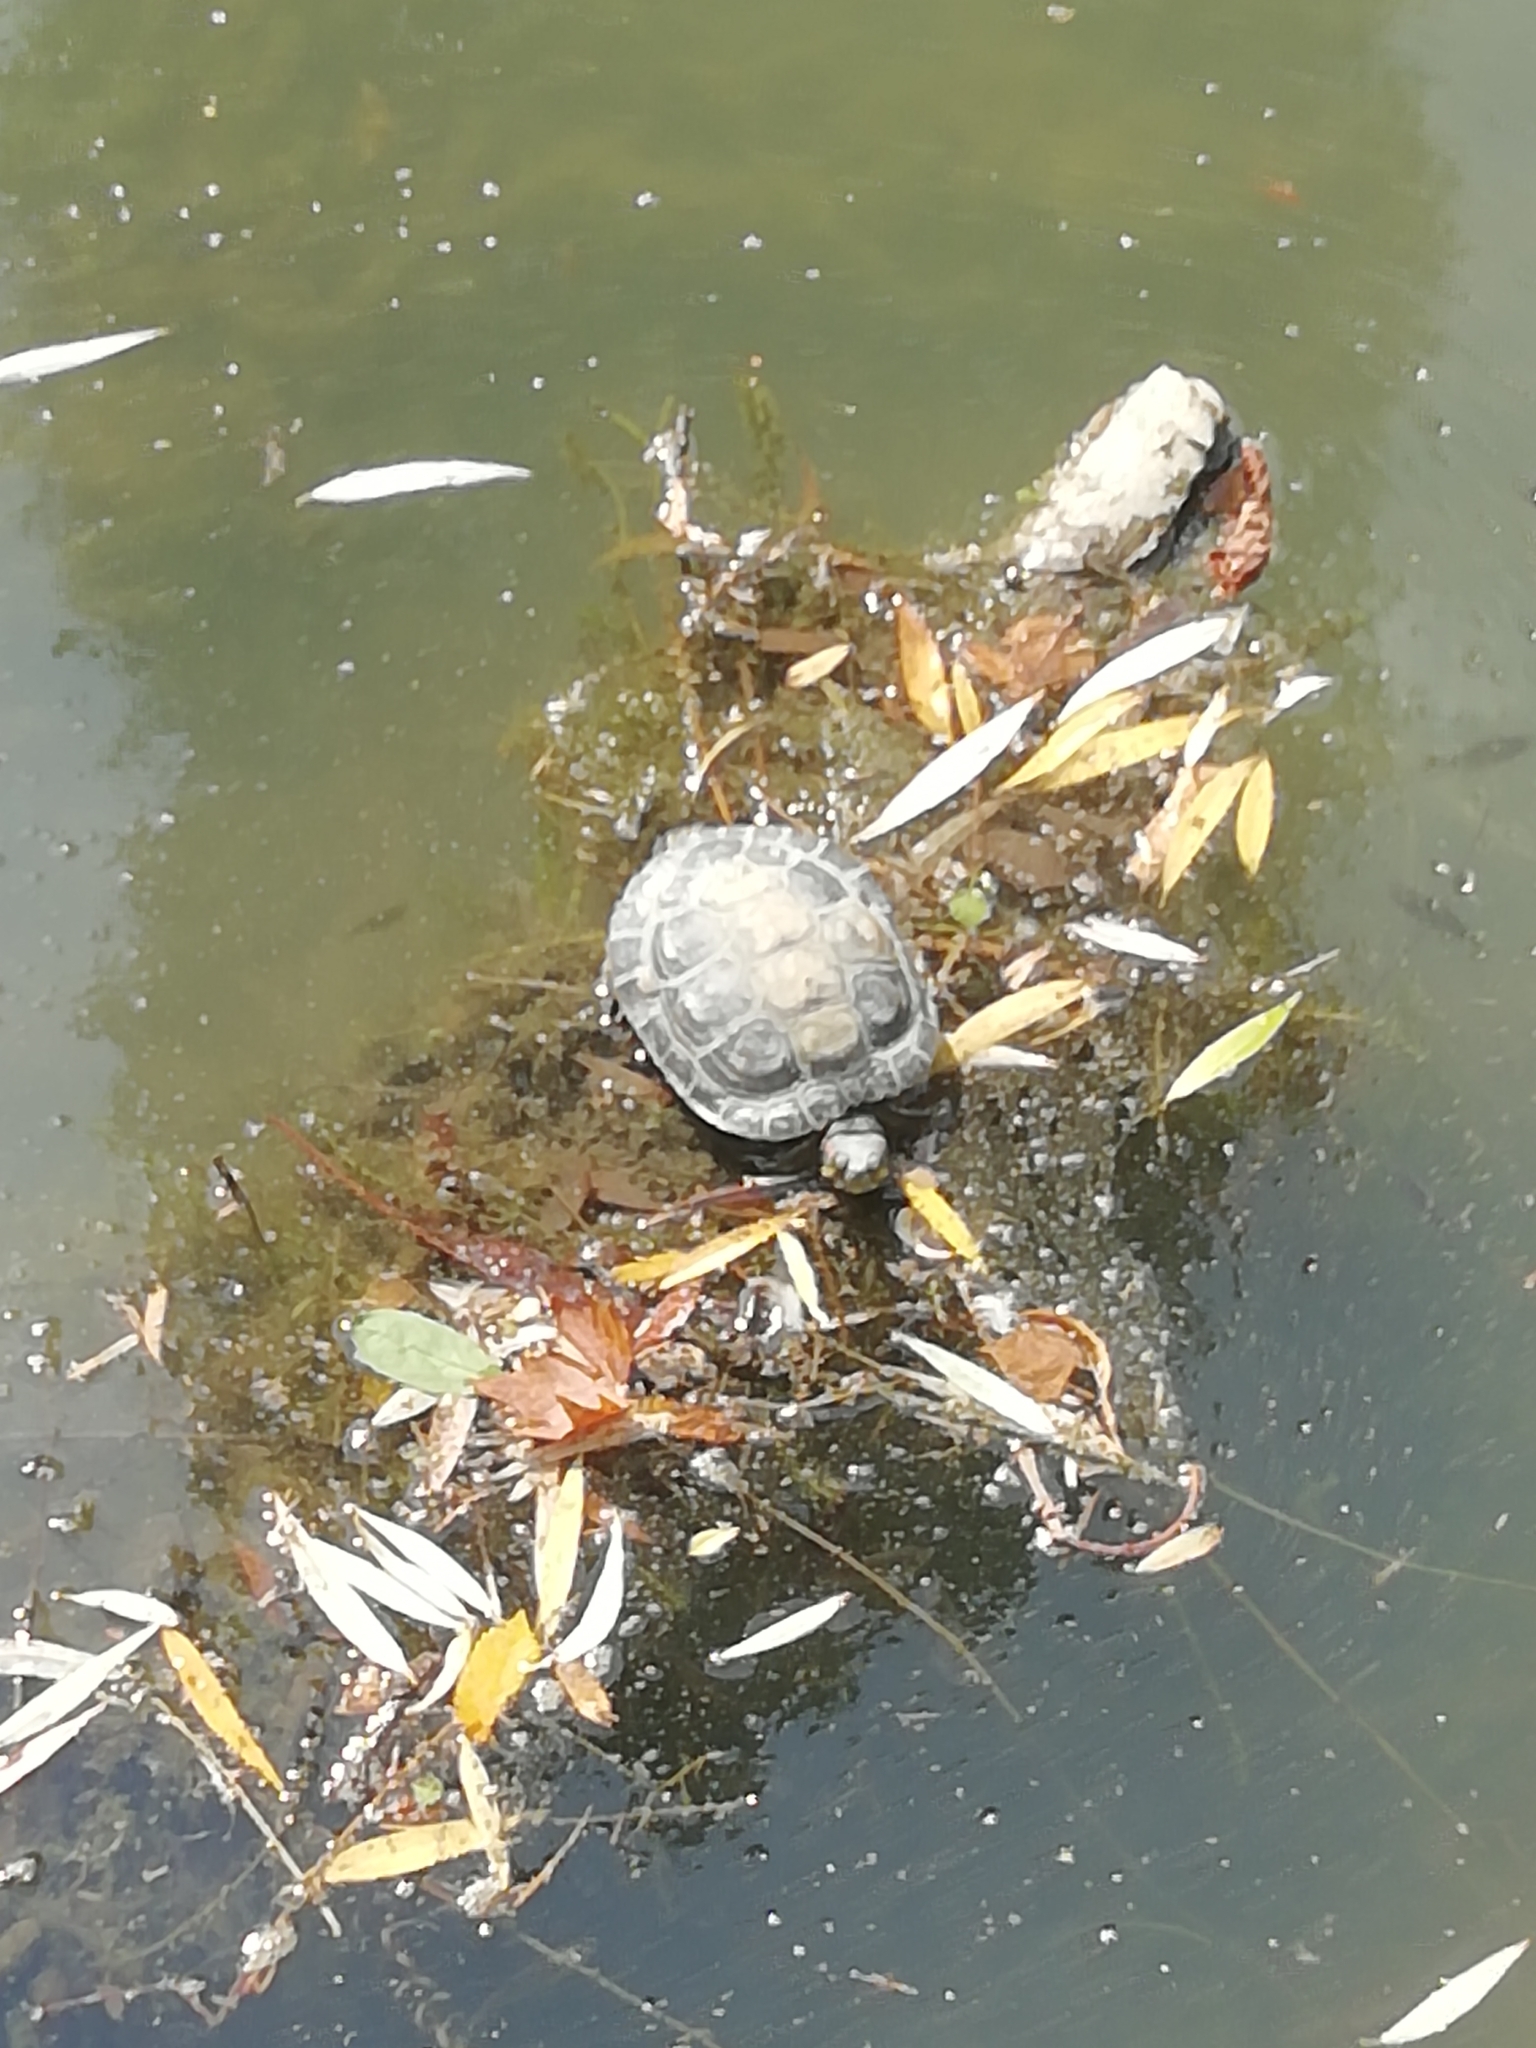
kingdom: Animalia
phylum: Chordata
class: Testudines
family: Emydidae
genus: Trachemys
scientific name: Trachemys scripta
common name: Slider
